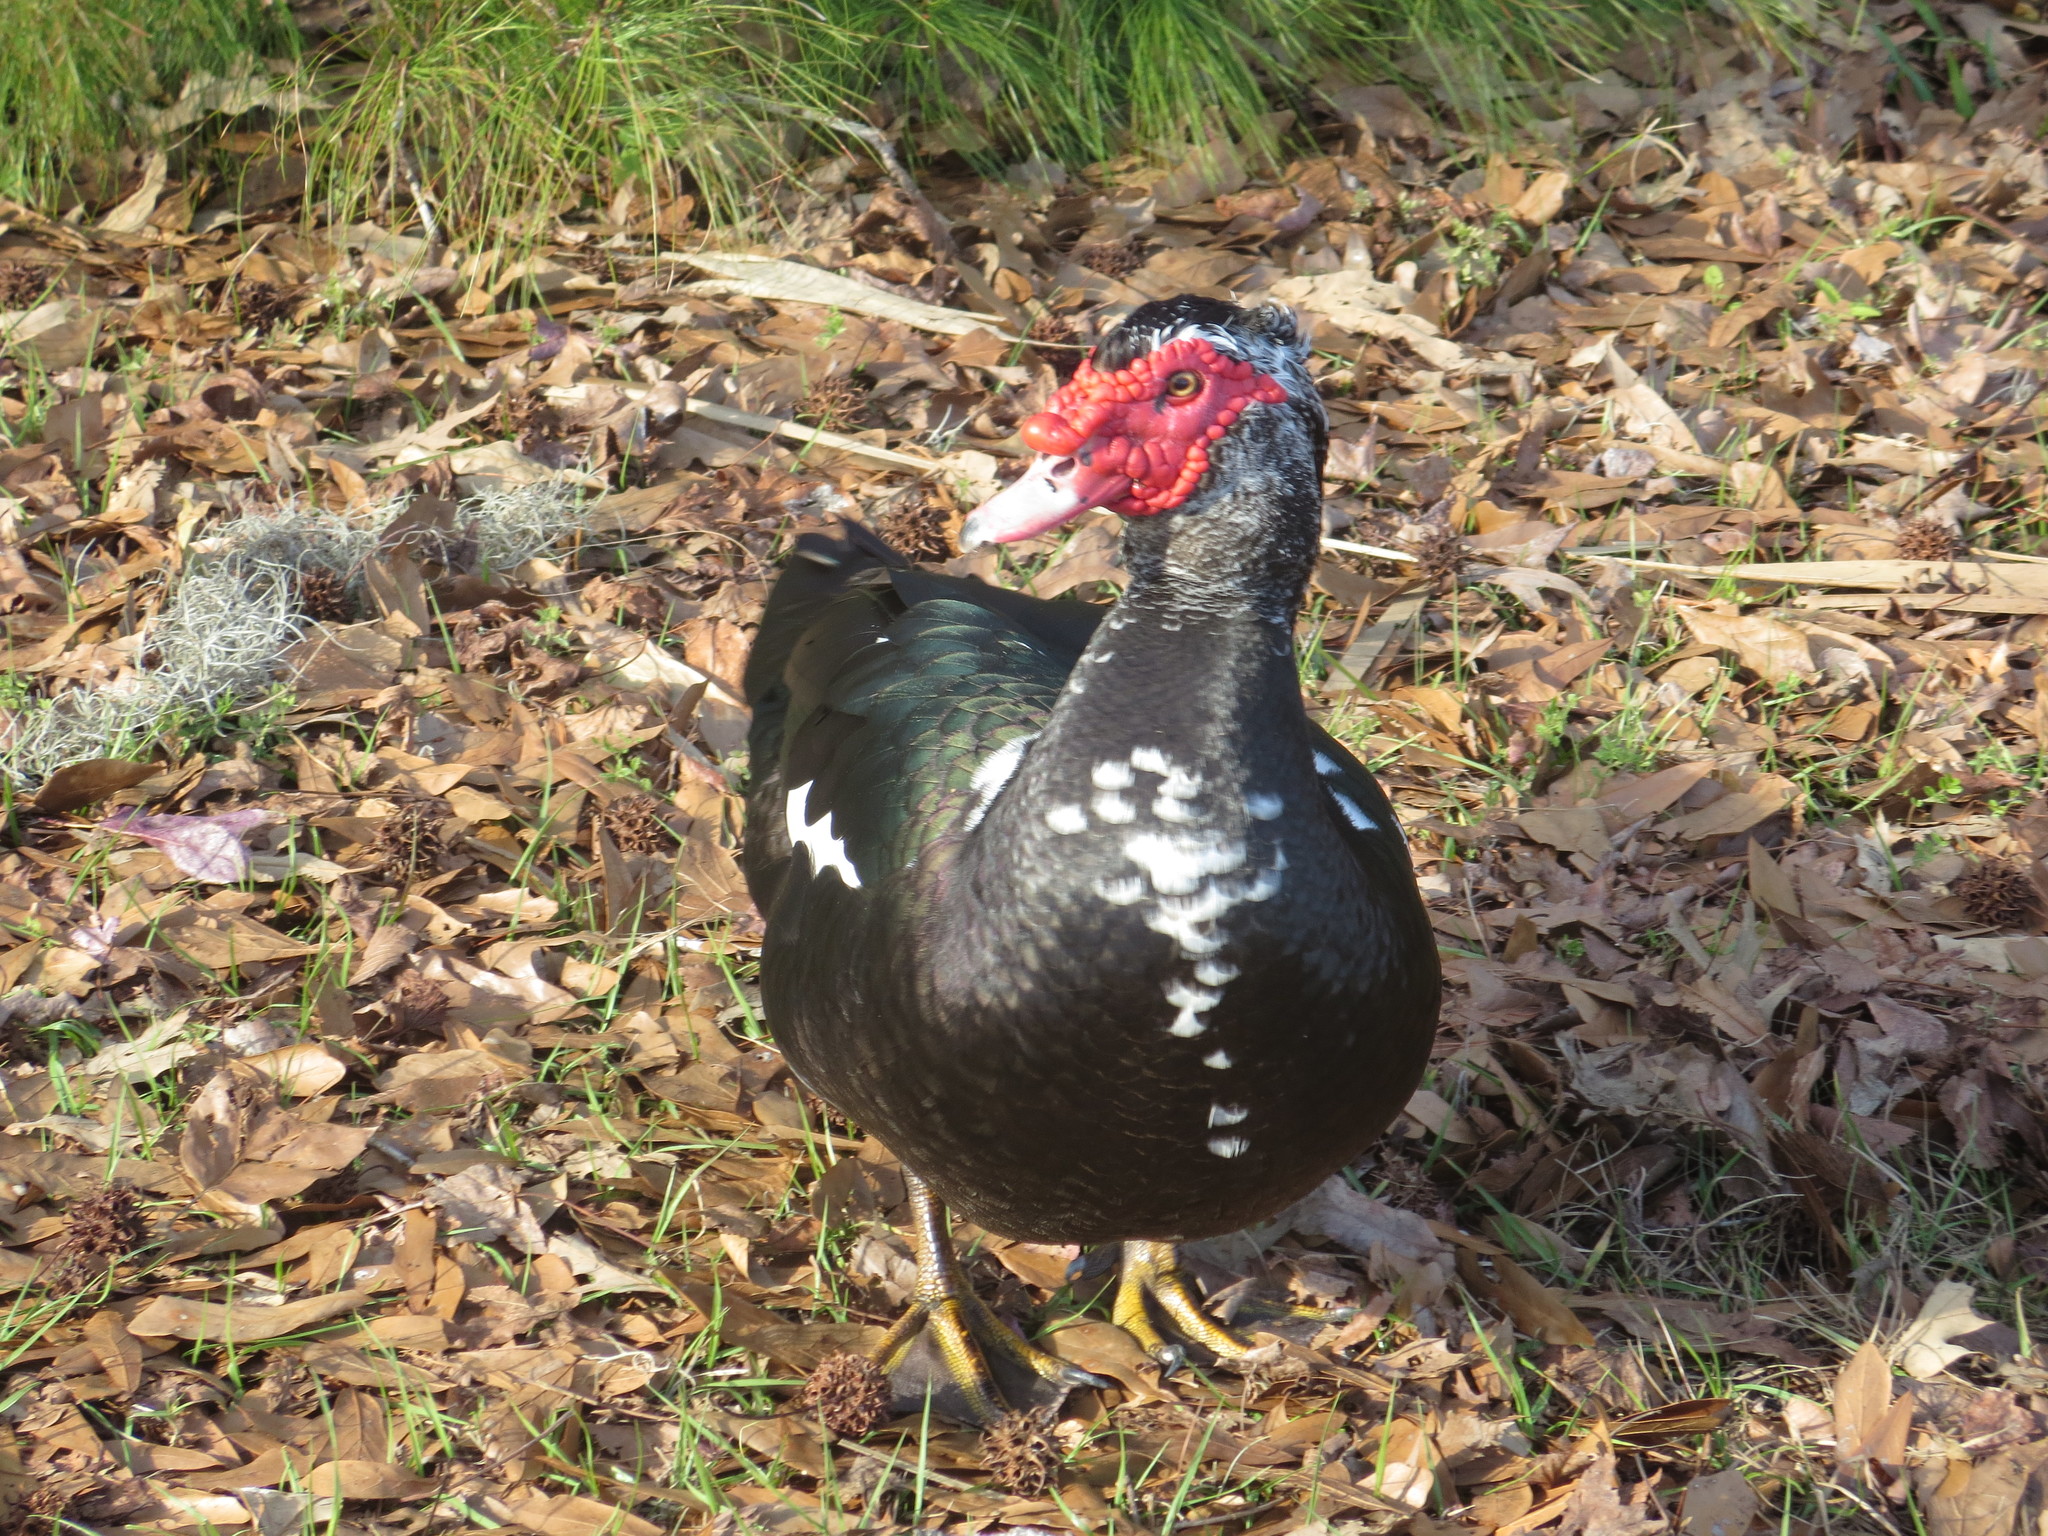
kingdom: Animalia
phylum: Chordata
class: Aves
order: Anseriformes
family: Anatidae
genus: Cairina
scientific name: Cairina moschata
